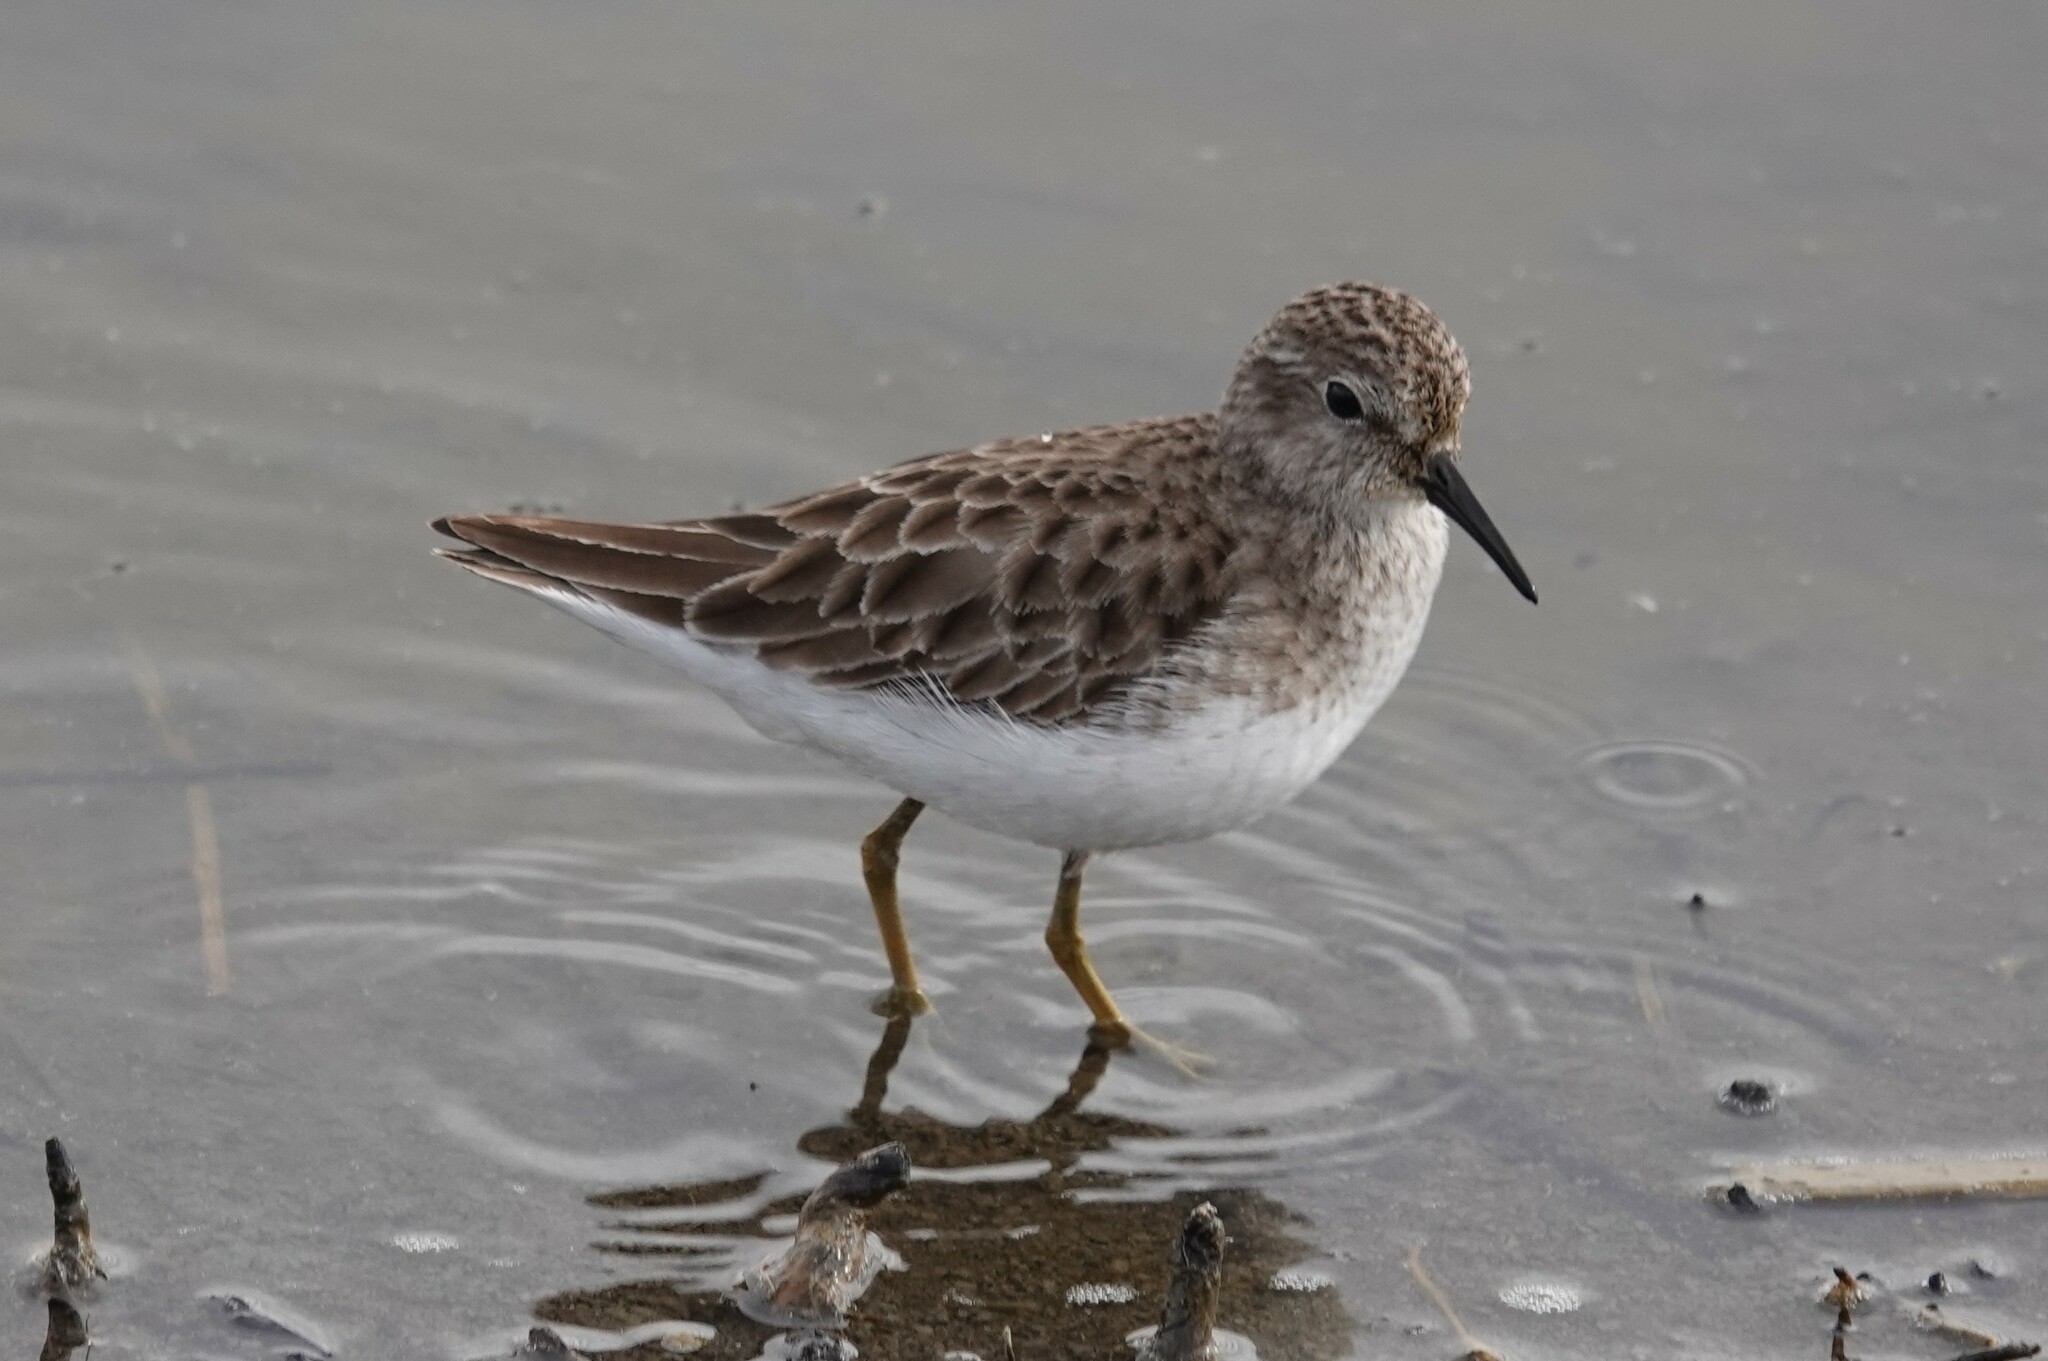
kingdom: Animalia
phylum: Chordata
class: Aves
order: Charadriiformes
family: Scolopacidae
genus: Calidris
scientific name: Calidris minutilla
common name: Least sandpiper
